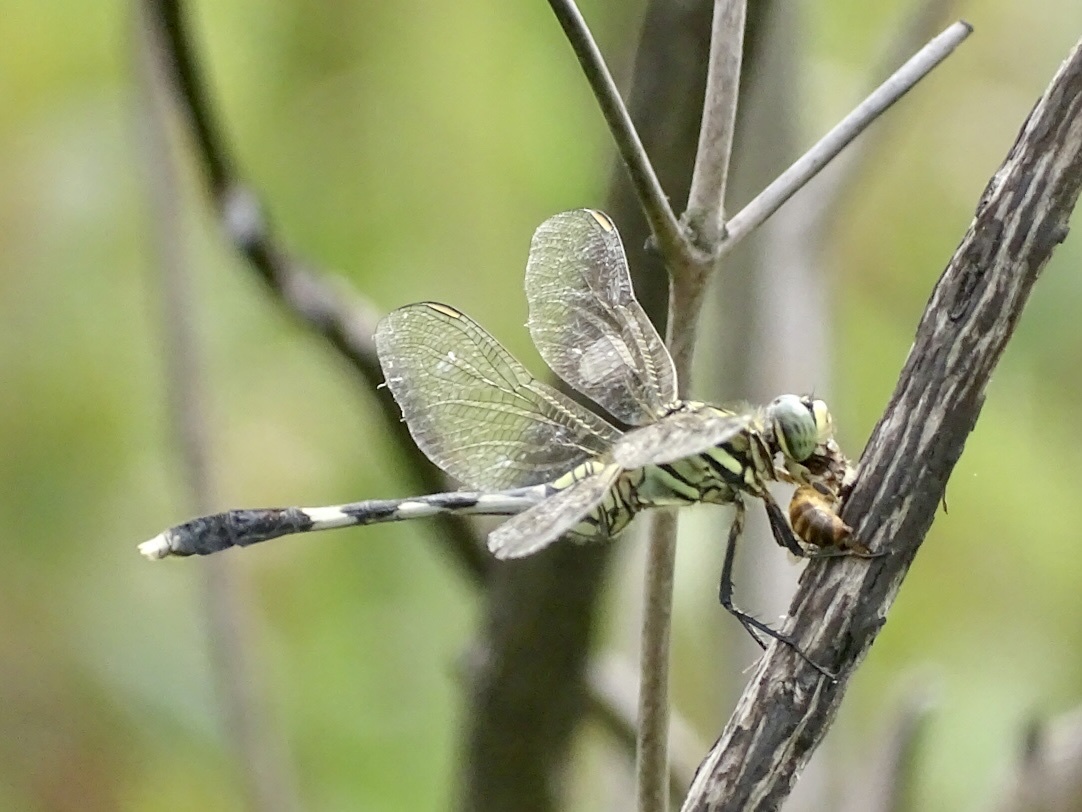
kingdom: Animalia
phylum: Arthropoda
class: Insecta
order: Odonata
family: Libellulidae
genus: Orthetrum
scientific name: Orthetrum sabina
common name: Slender skimmer
